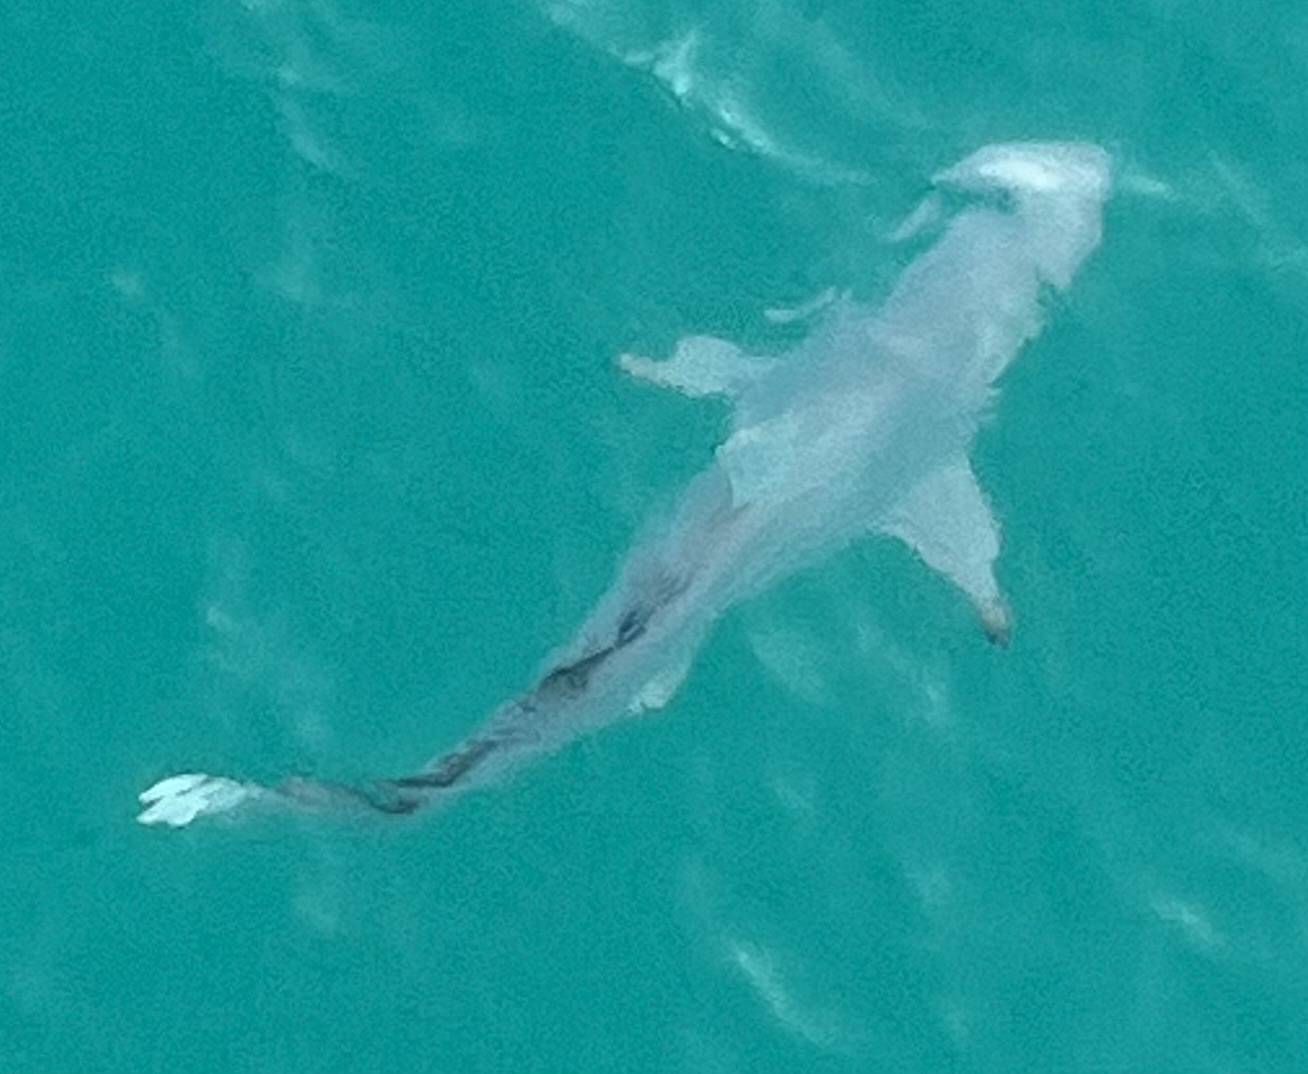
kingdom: Animalia
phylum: Chordata
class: Elasmobranchii
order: Carcharhiniformes
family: Carcharhinidae
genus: Carcharhinus
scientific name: Carcharhinus limbatus
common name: Blacktip shark
